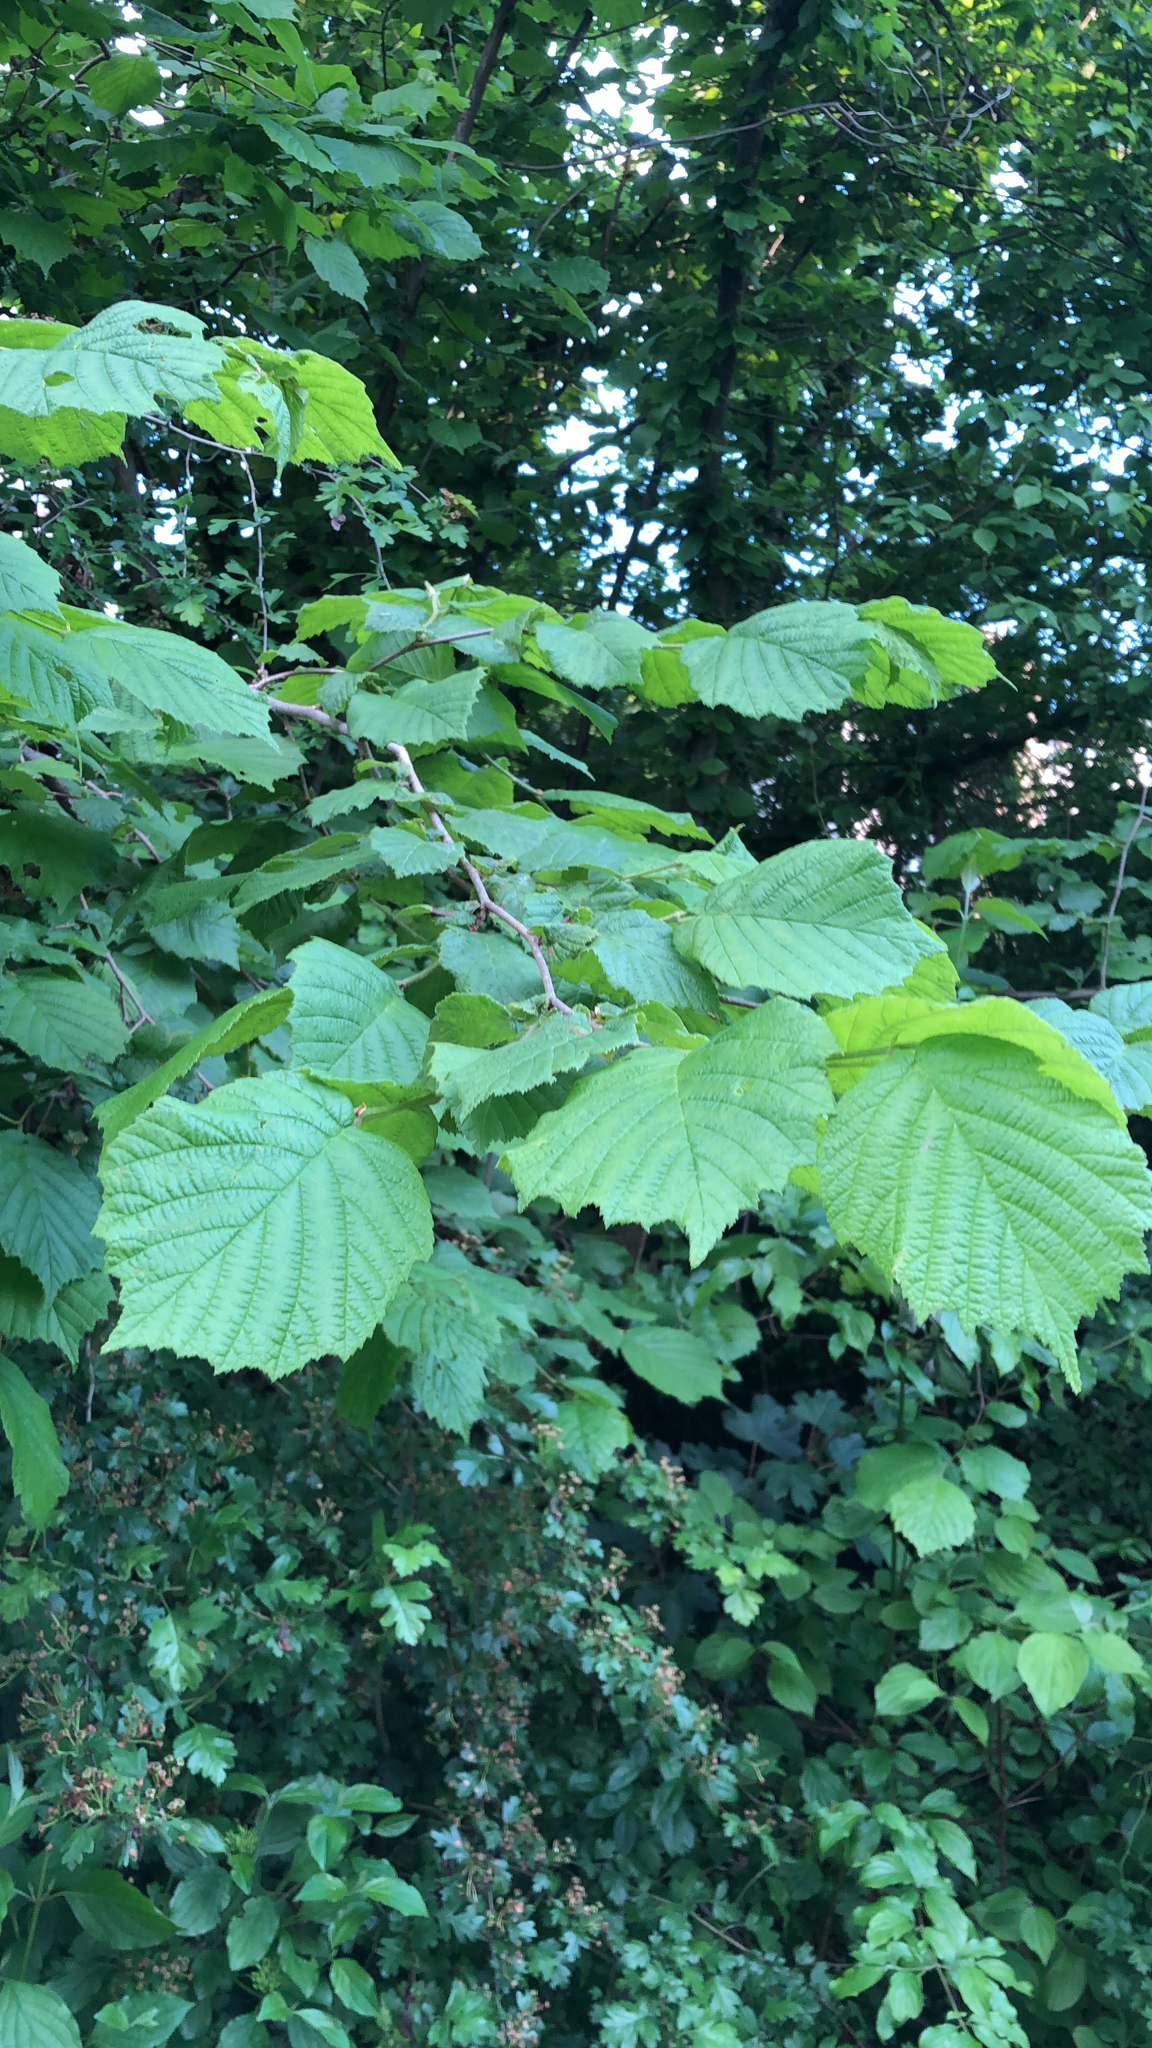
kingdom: Plantae
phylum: Tracheophyta
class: Magnoliopsida
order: Fagales
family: Betulaceae
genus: Corylus
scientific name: Corylus avellana
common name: European hazel
